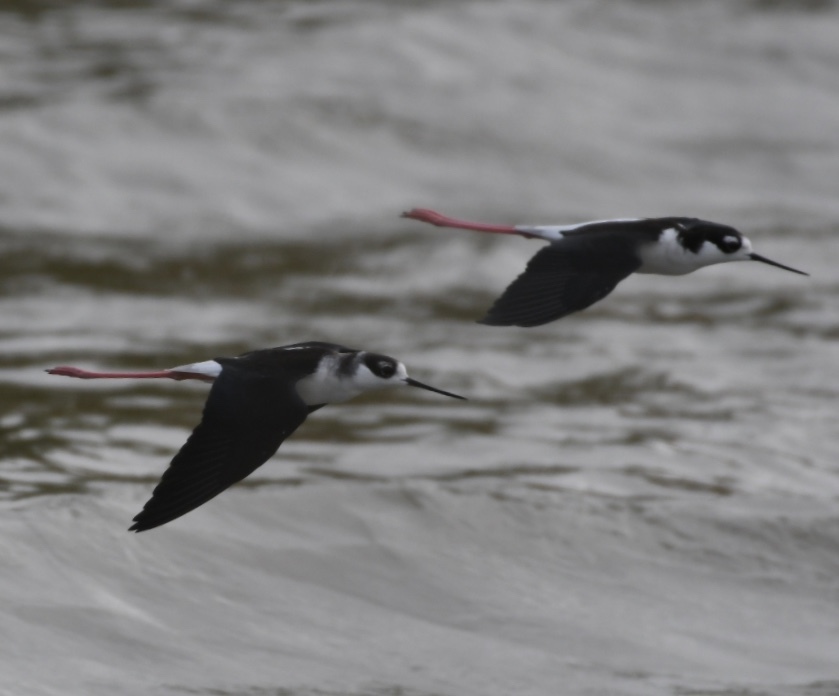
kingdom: Animalia
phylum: Chordata
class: Aves
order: Charadriiformes
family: Recurvirostridae
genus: Himantopus
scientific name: Himantopus mexicanus
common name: Black-necked stilt
